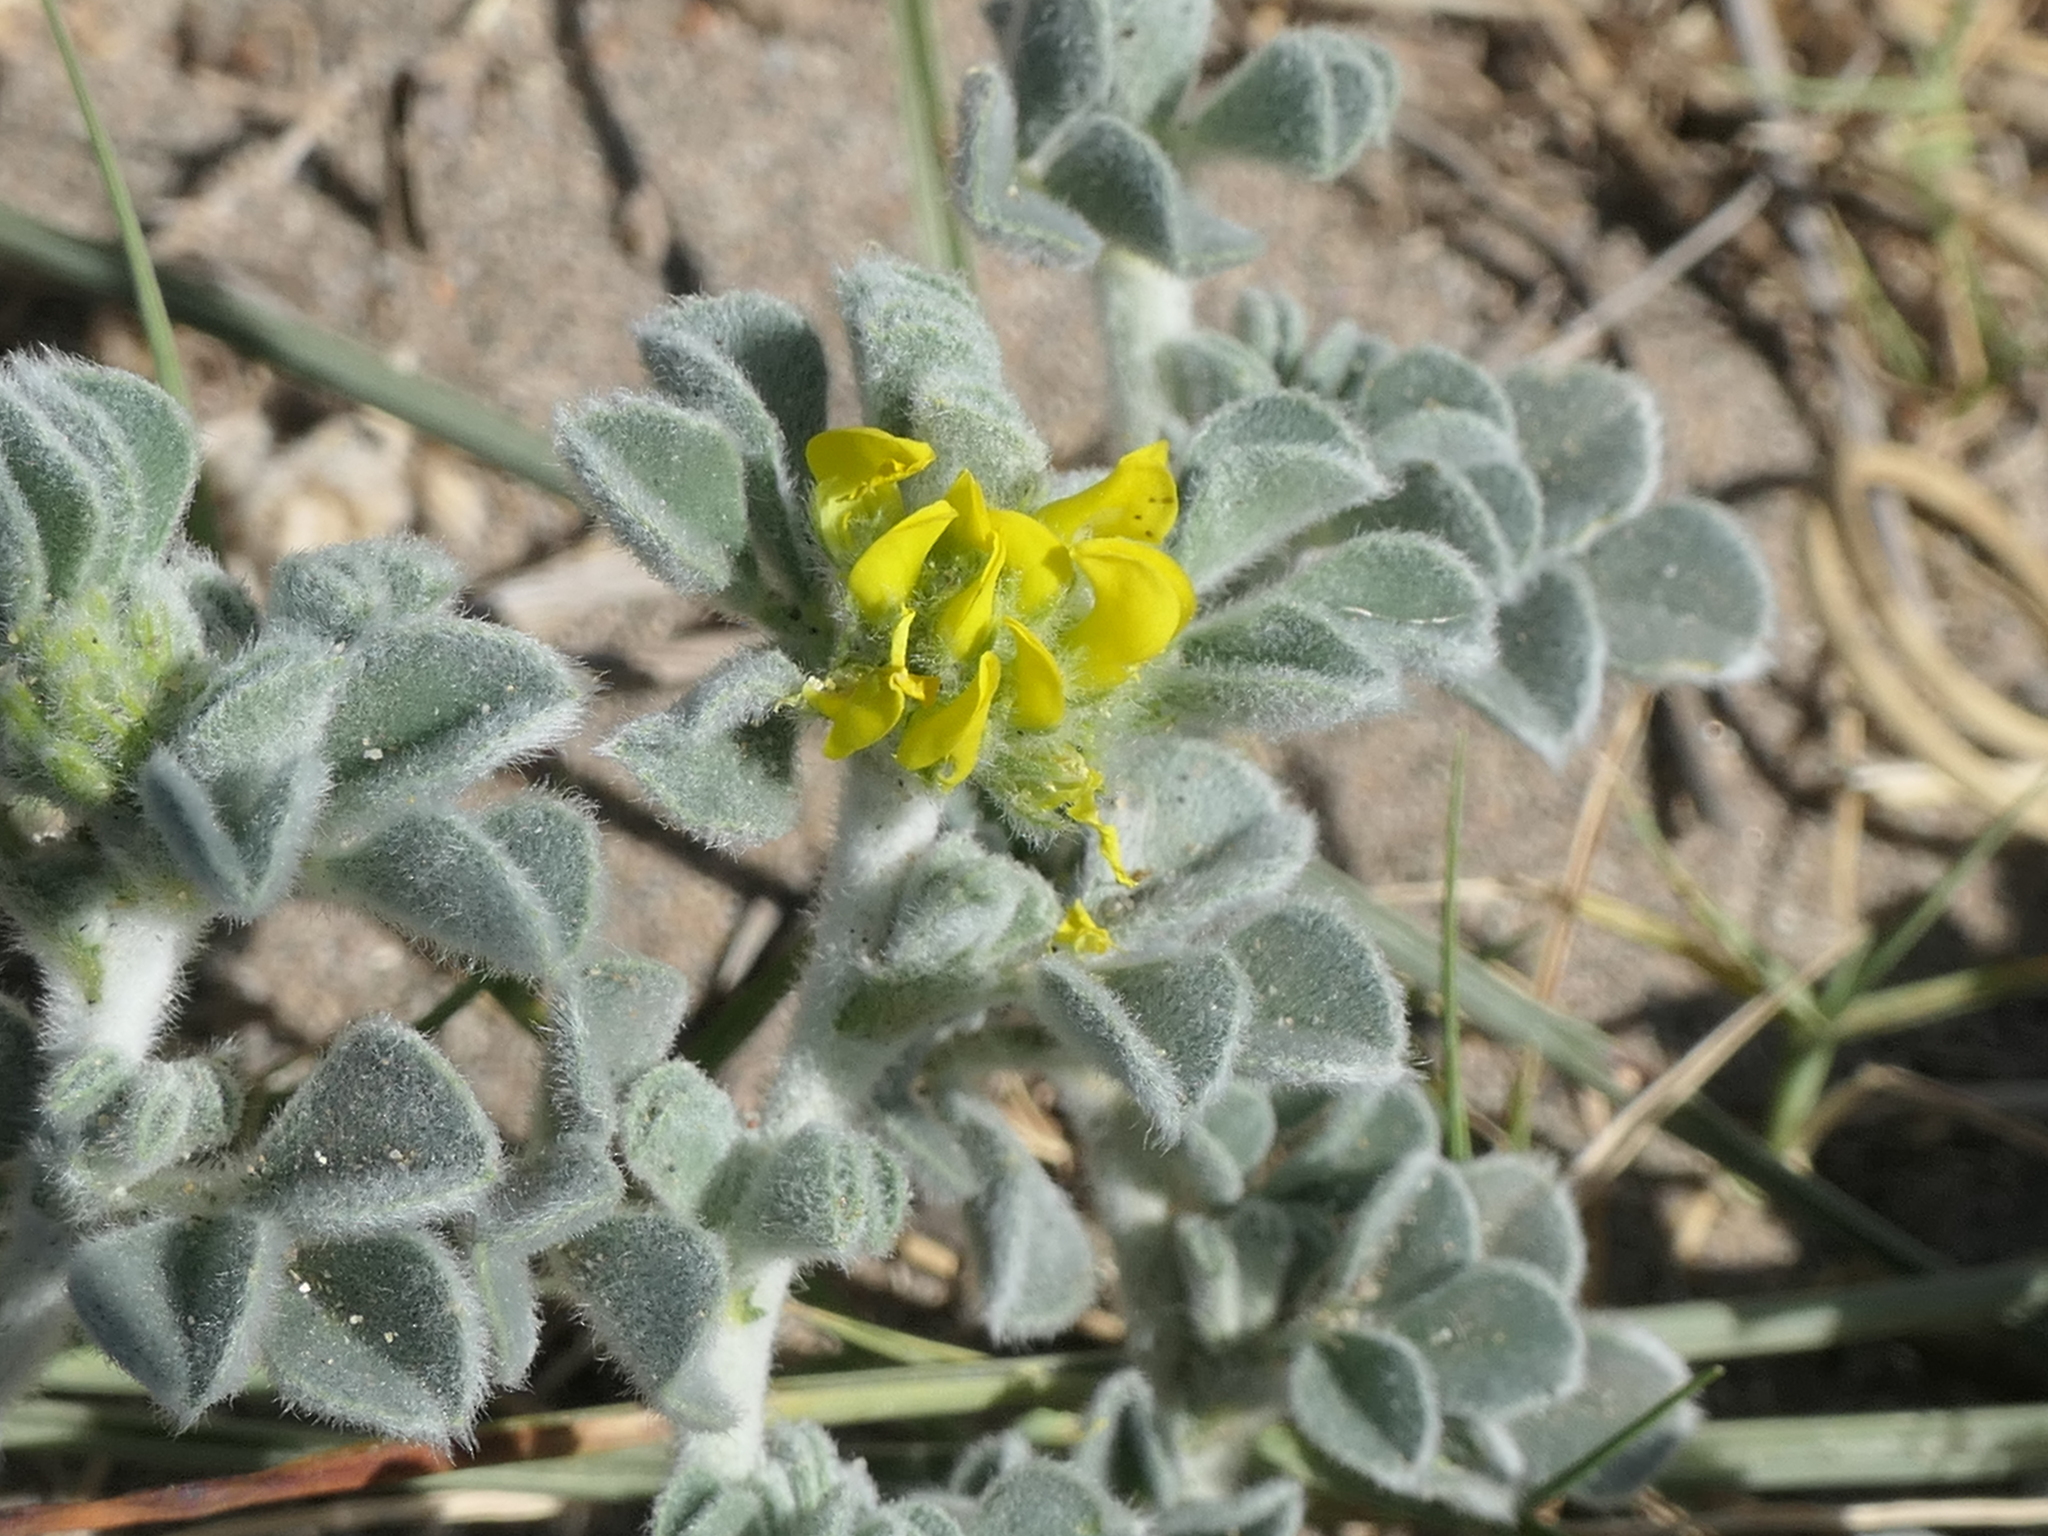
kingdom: Plantae
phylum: Tracheophyta
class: Magnoliopsida
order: Fabales
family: Fabaceae
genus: Medicago
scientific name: Medicago marina
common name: Sea medick
